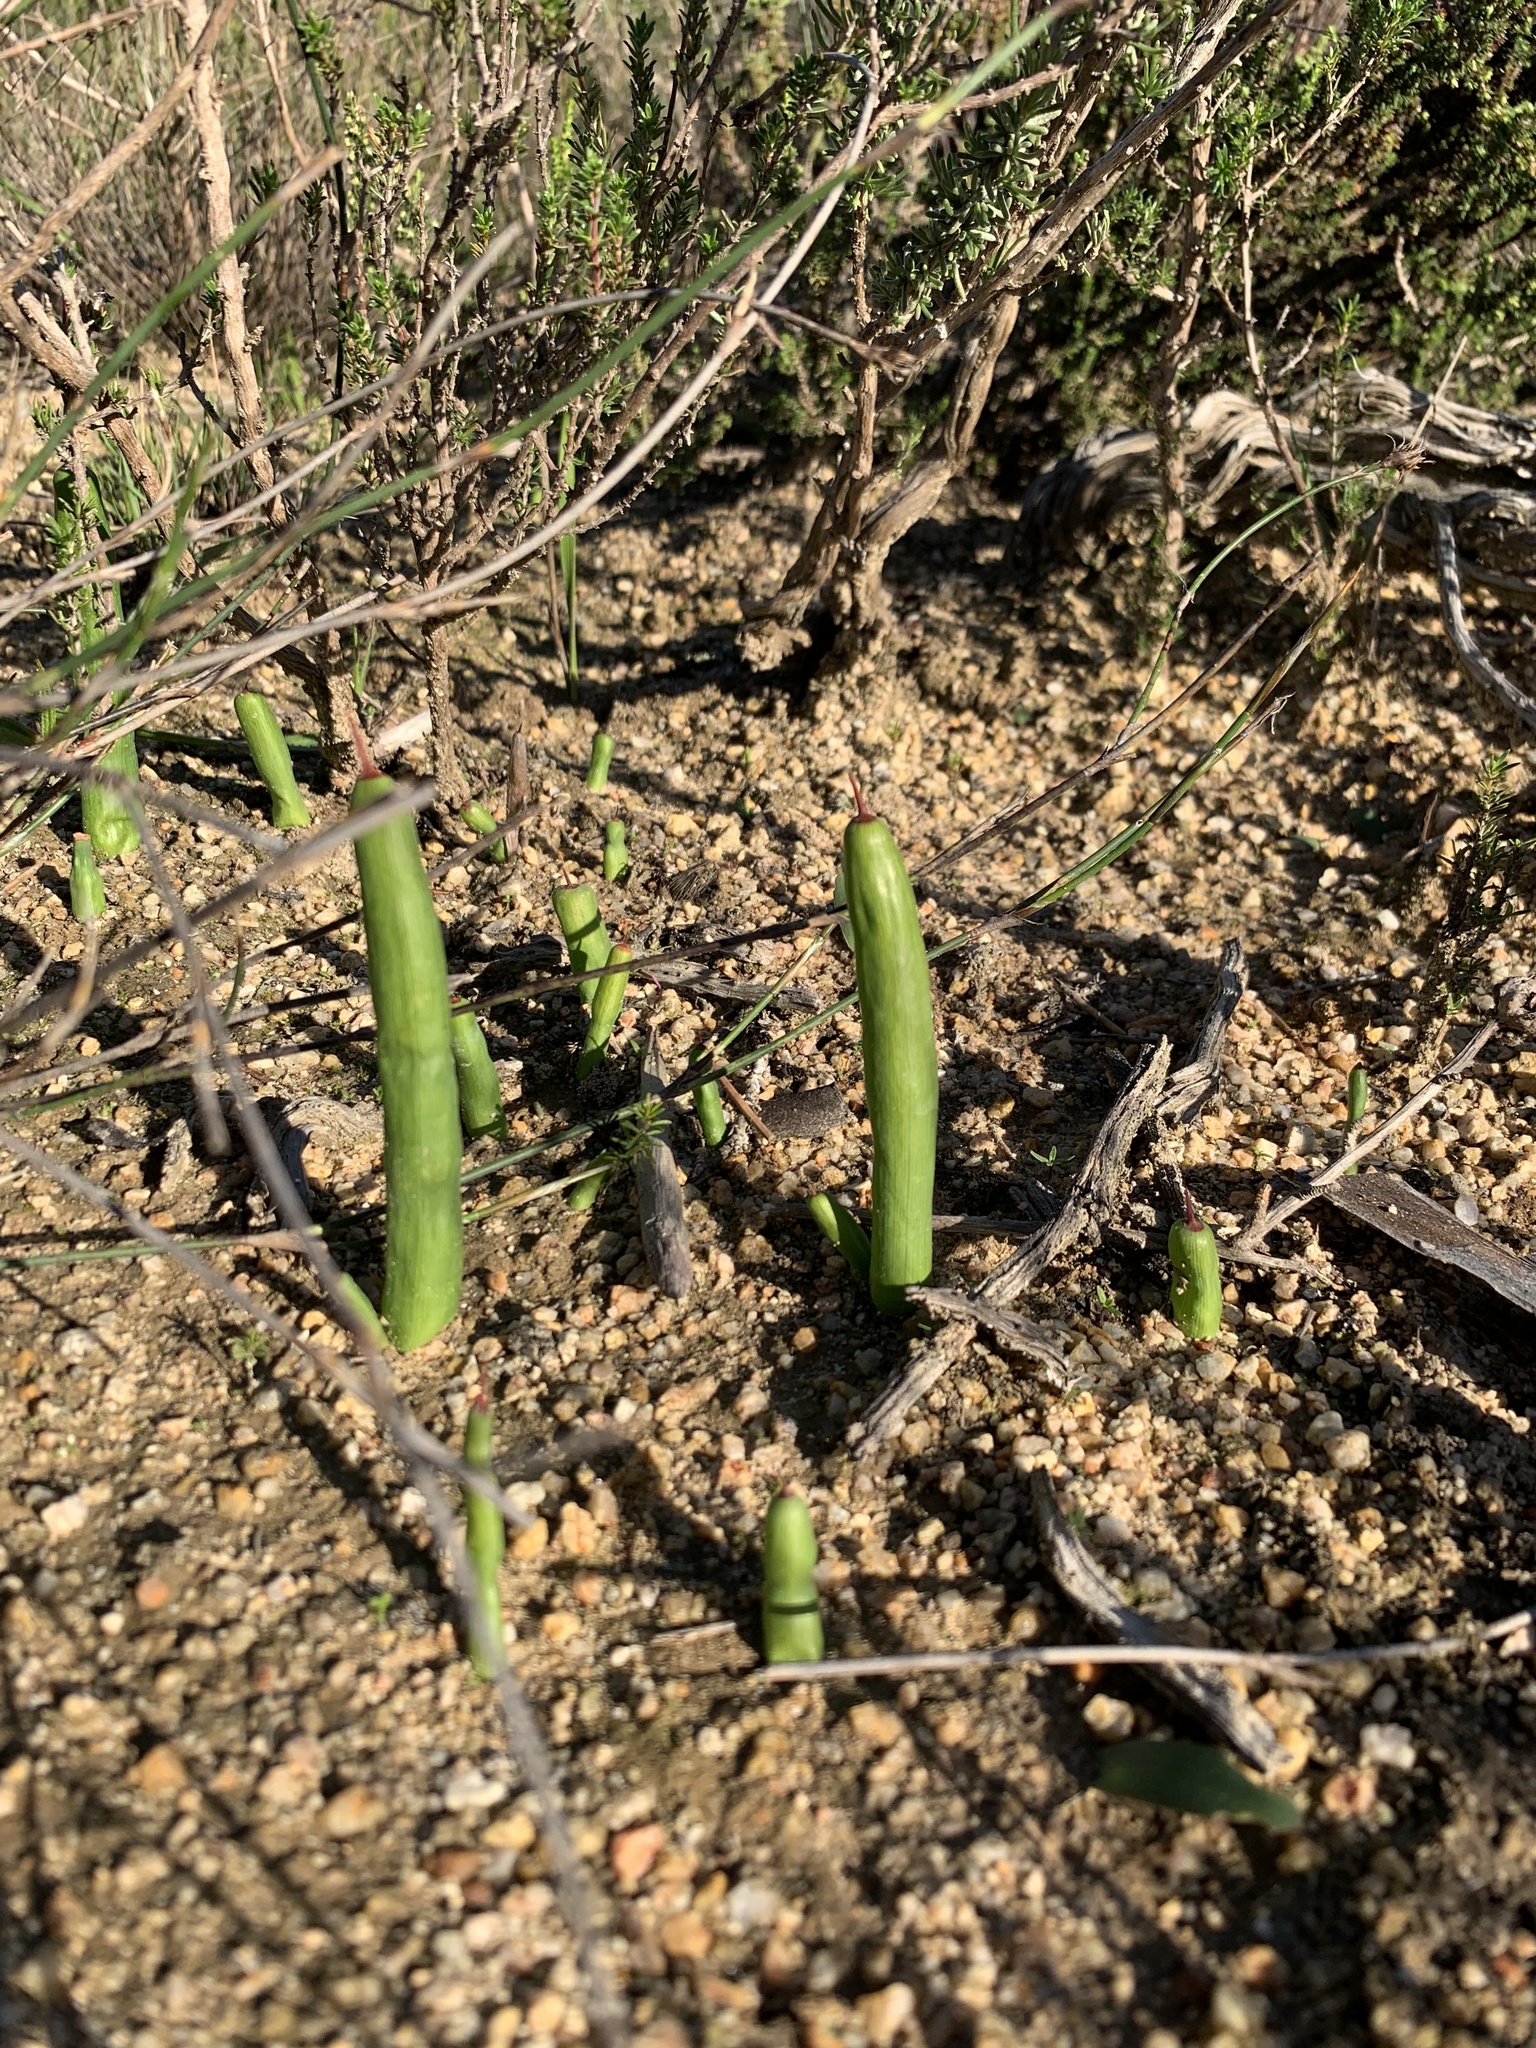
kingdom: Plantae
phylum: Tracheophyta
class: Liliopsida
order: Asparagales
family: Iridaceae
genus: Micranthus
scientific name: Micranthus tubulosus
